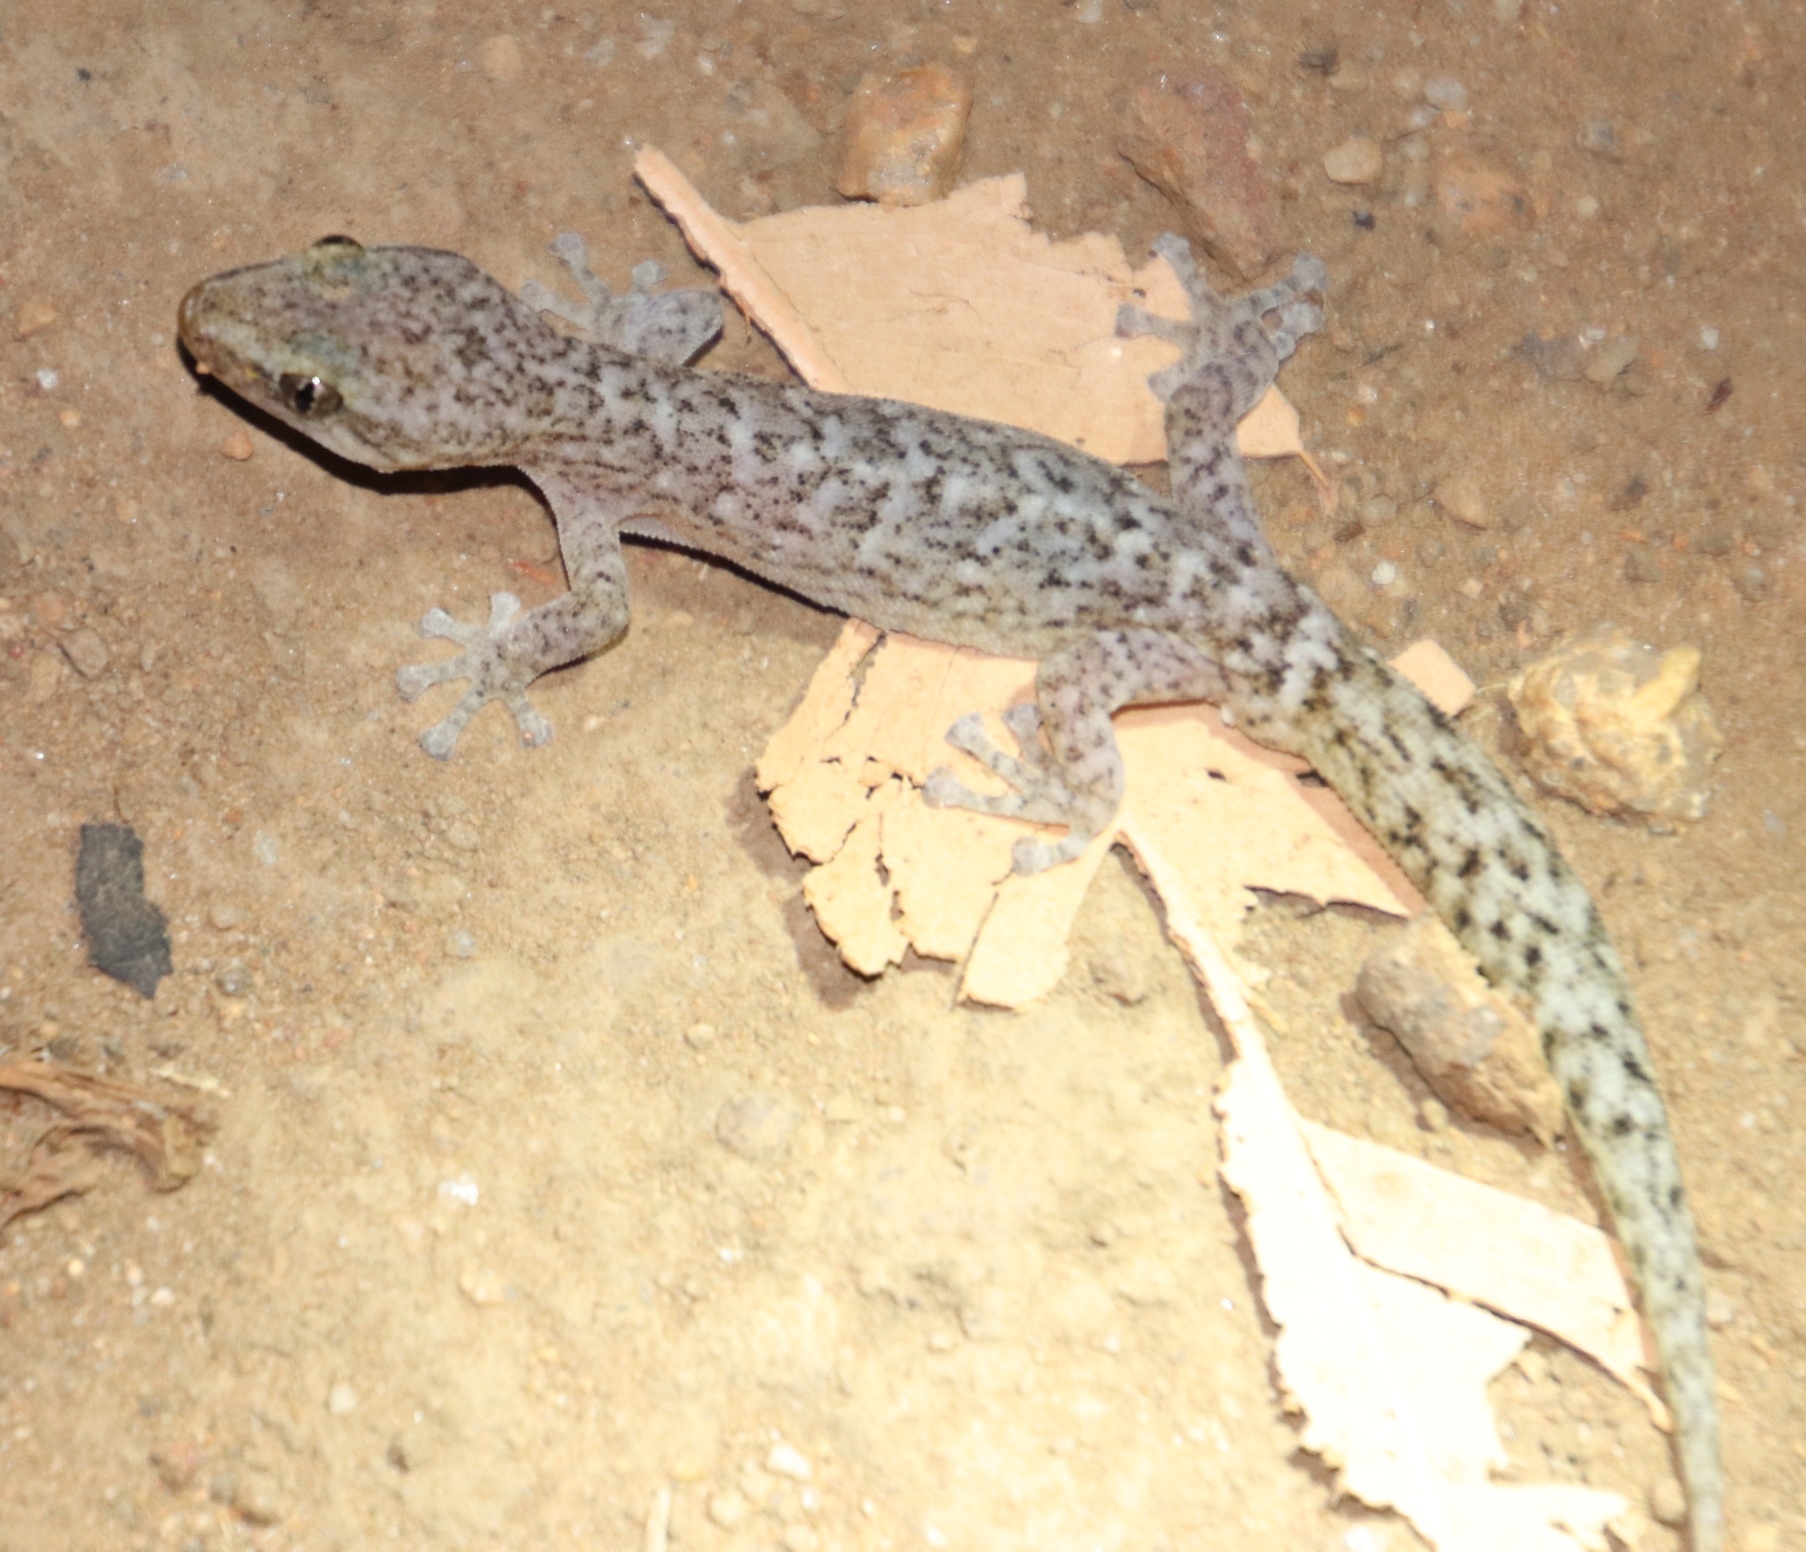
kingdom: Animalia
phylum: Chordata
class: Squamata
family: Gekkonidae
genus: Afrogecko
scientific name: Afrogecko porphyreus
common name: Marbled leaf-toed gecko
